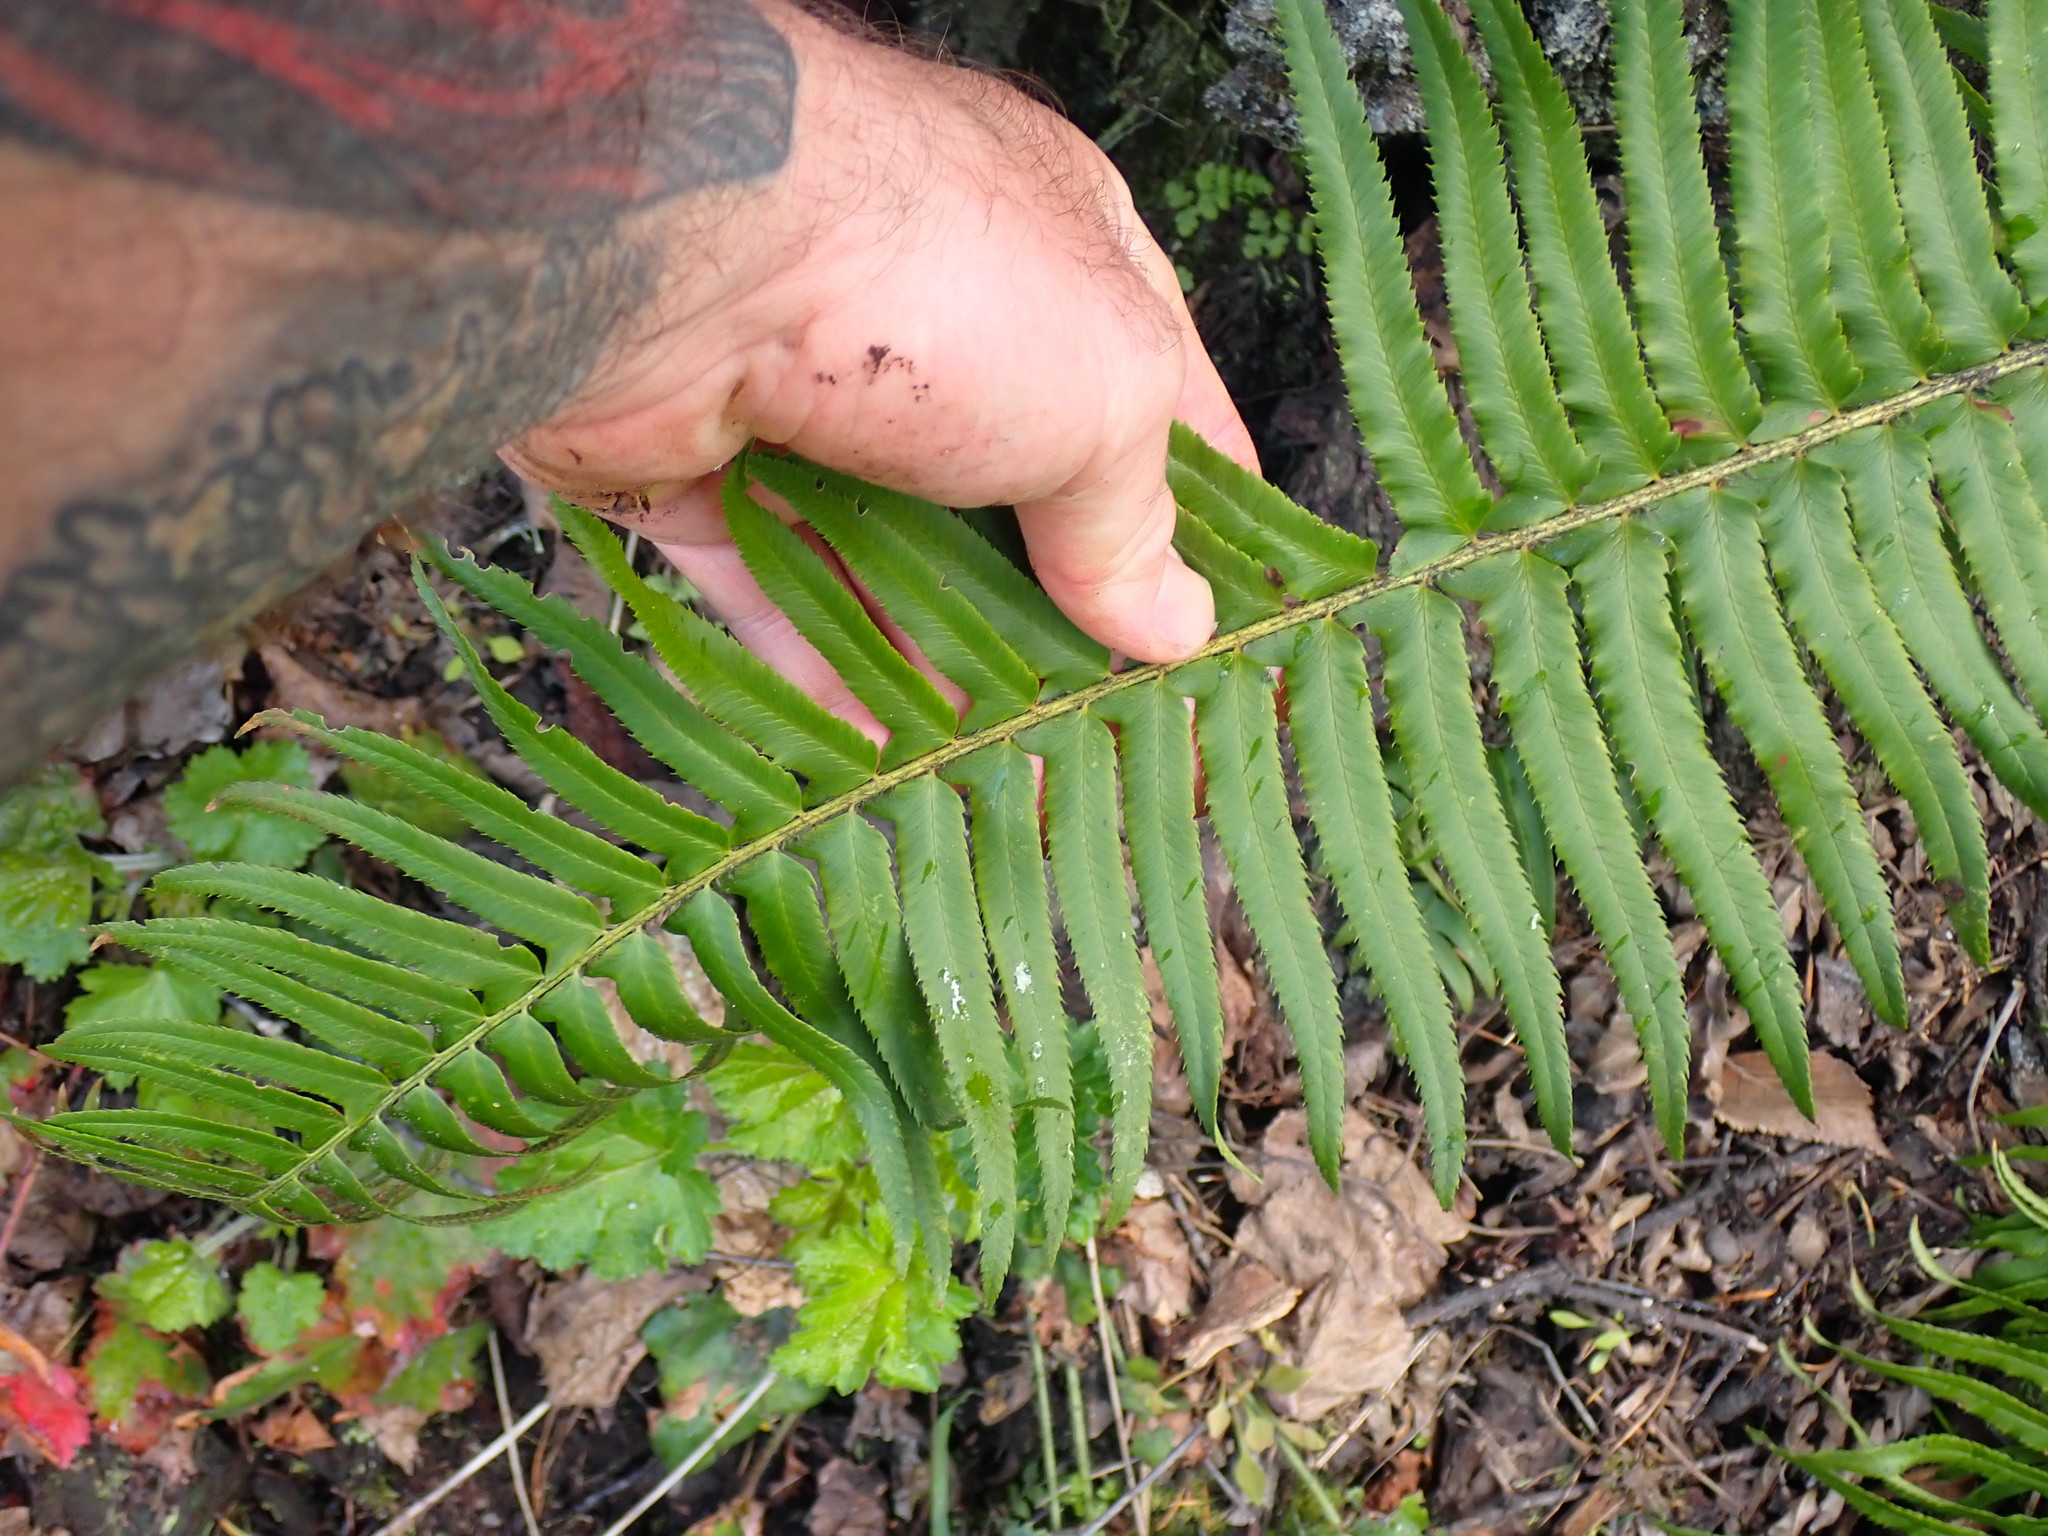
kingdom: Plantae
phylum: Tracheophyta
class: Polypodiopsida
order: Polypodiales
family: Dryopteridaceae
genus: Polystichum
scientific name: Polystichum munitum
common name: Western sword-fern
